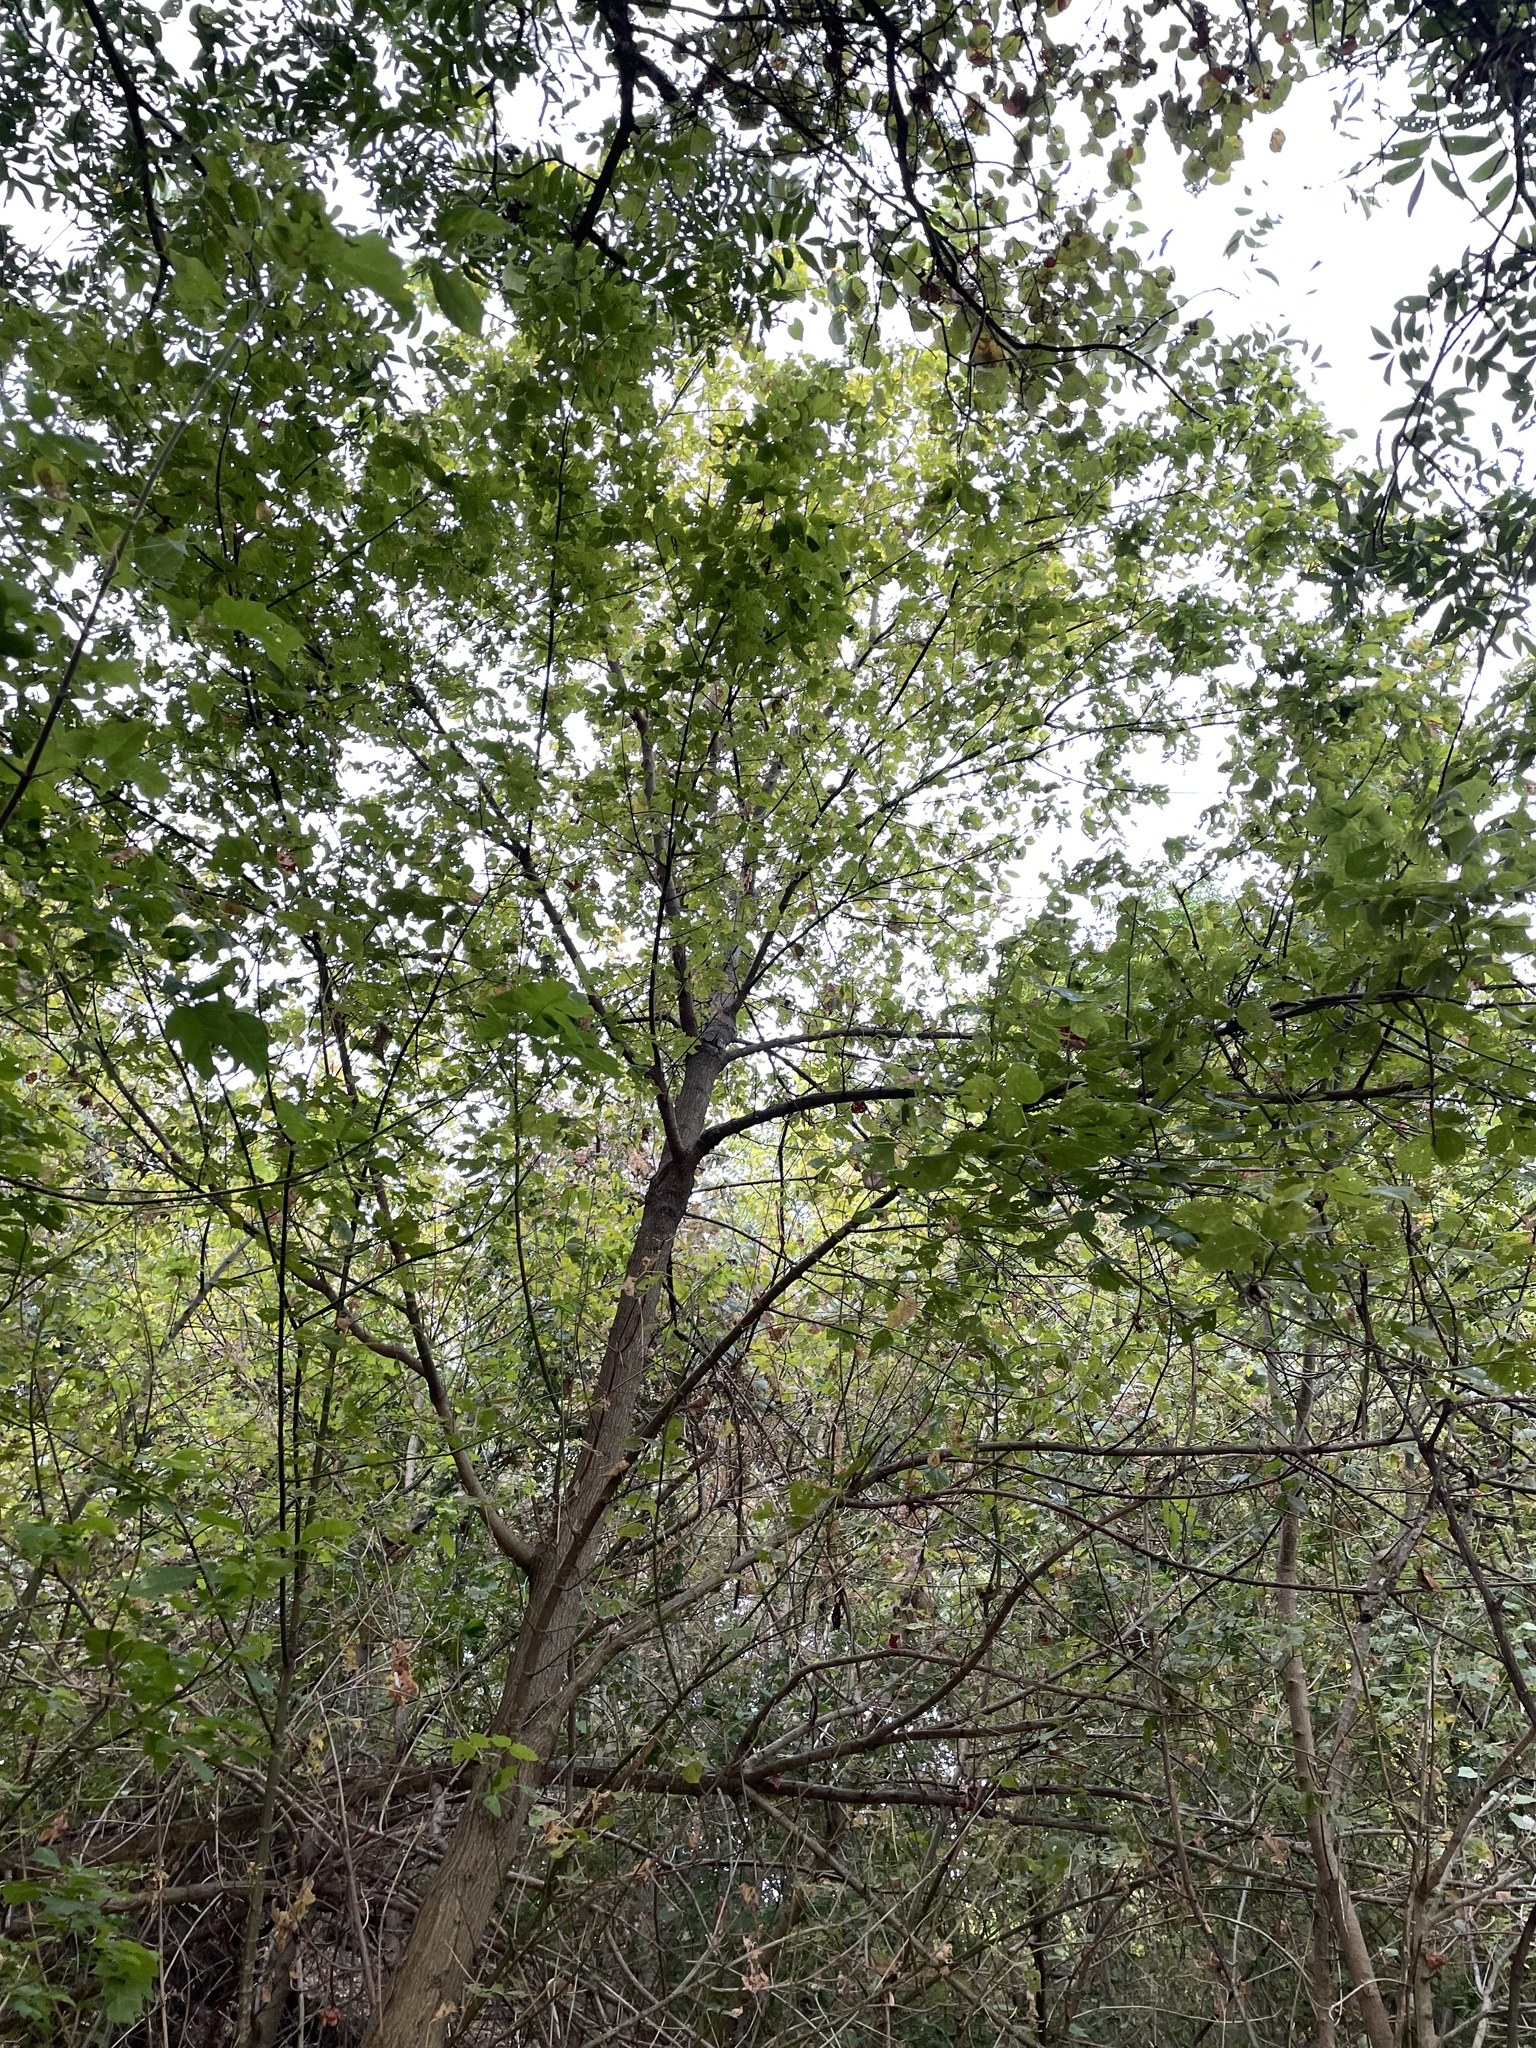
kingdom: Plantae
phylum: Tracheophyta
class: Magnoliopsida
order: Sapindales
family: Sapindaceae
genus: Acer
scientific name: Acer negundo
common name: Ashleaf maple
